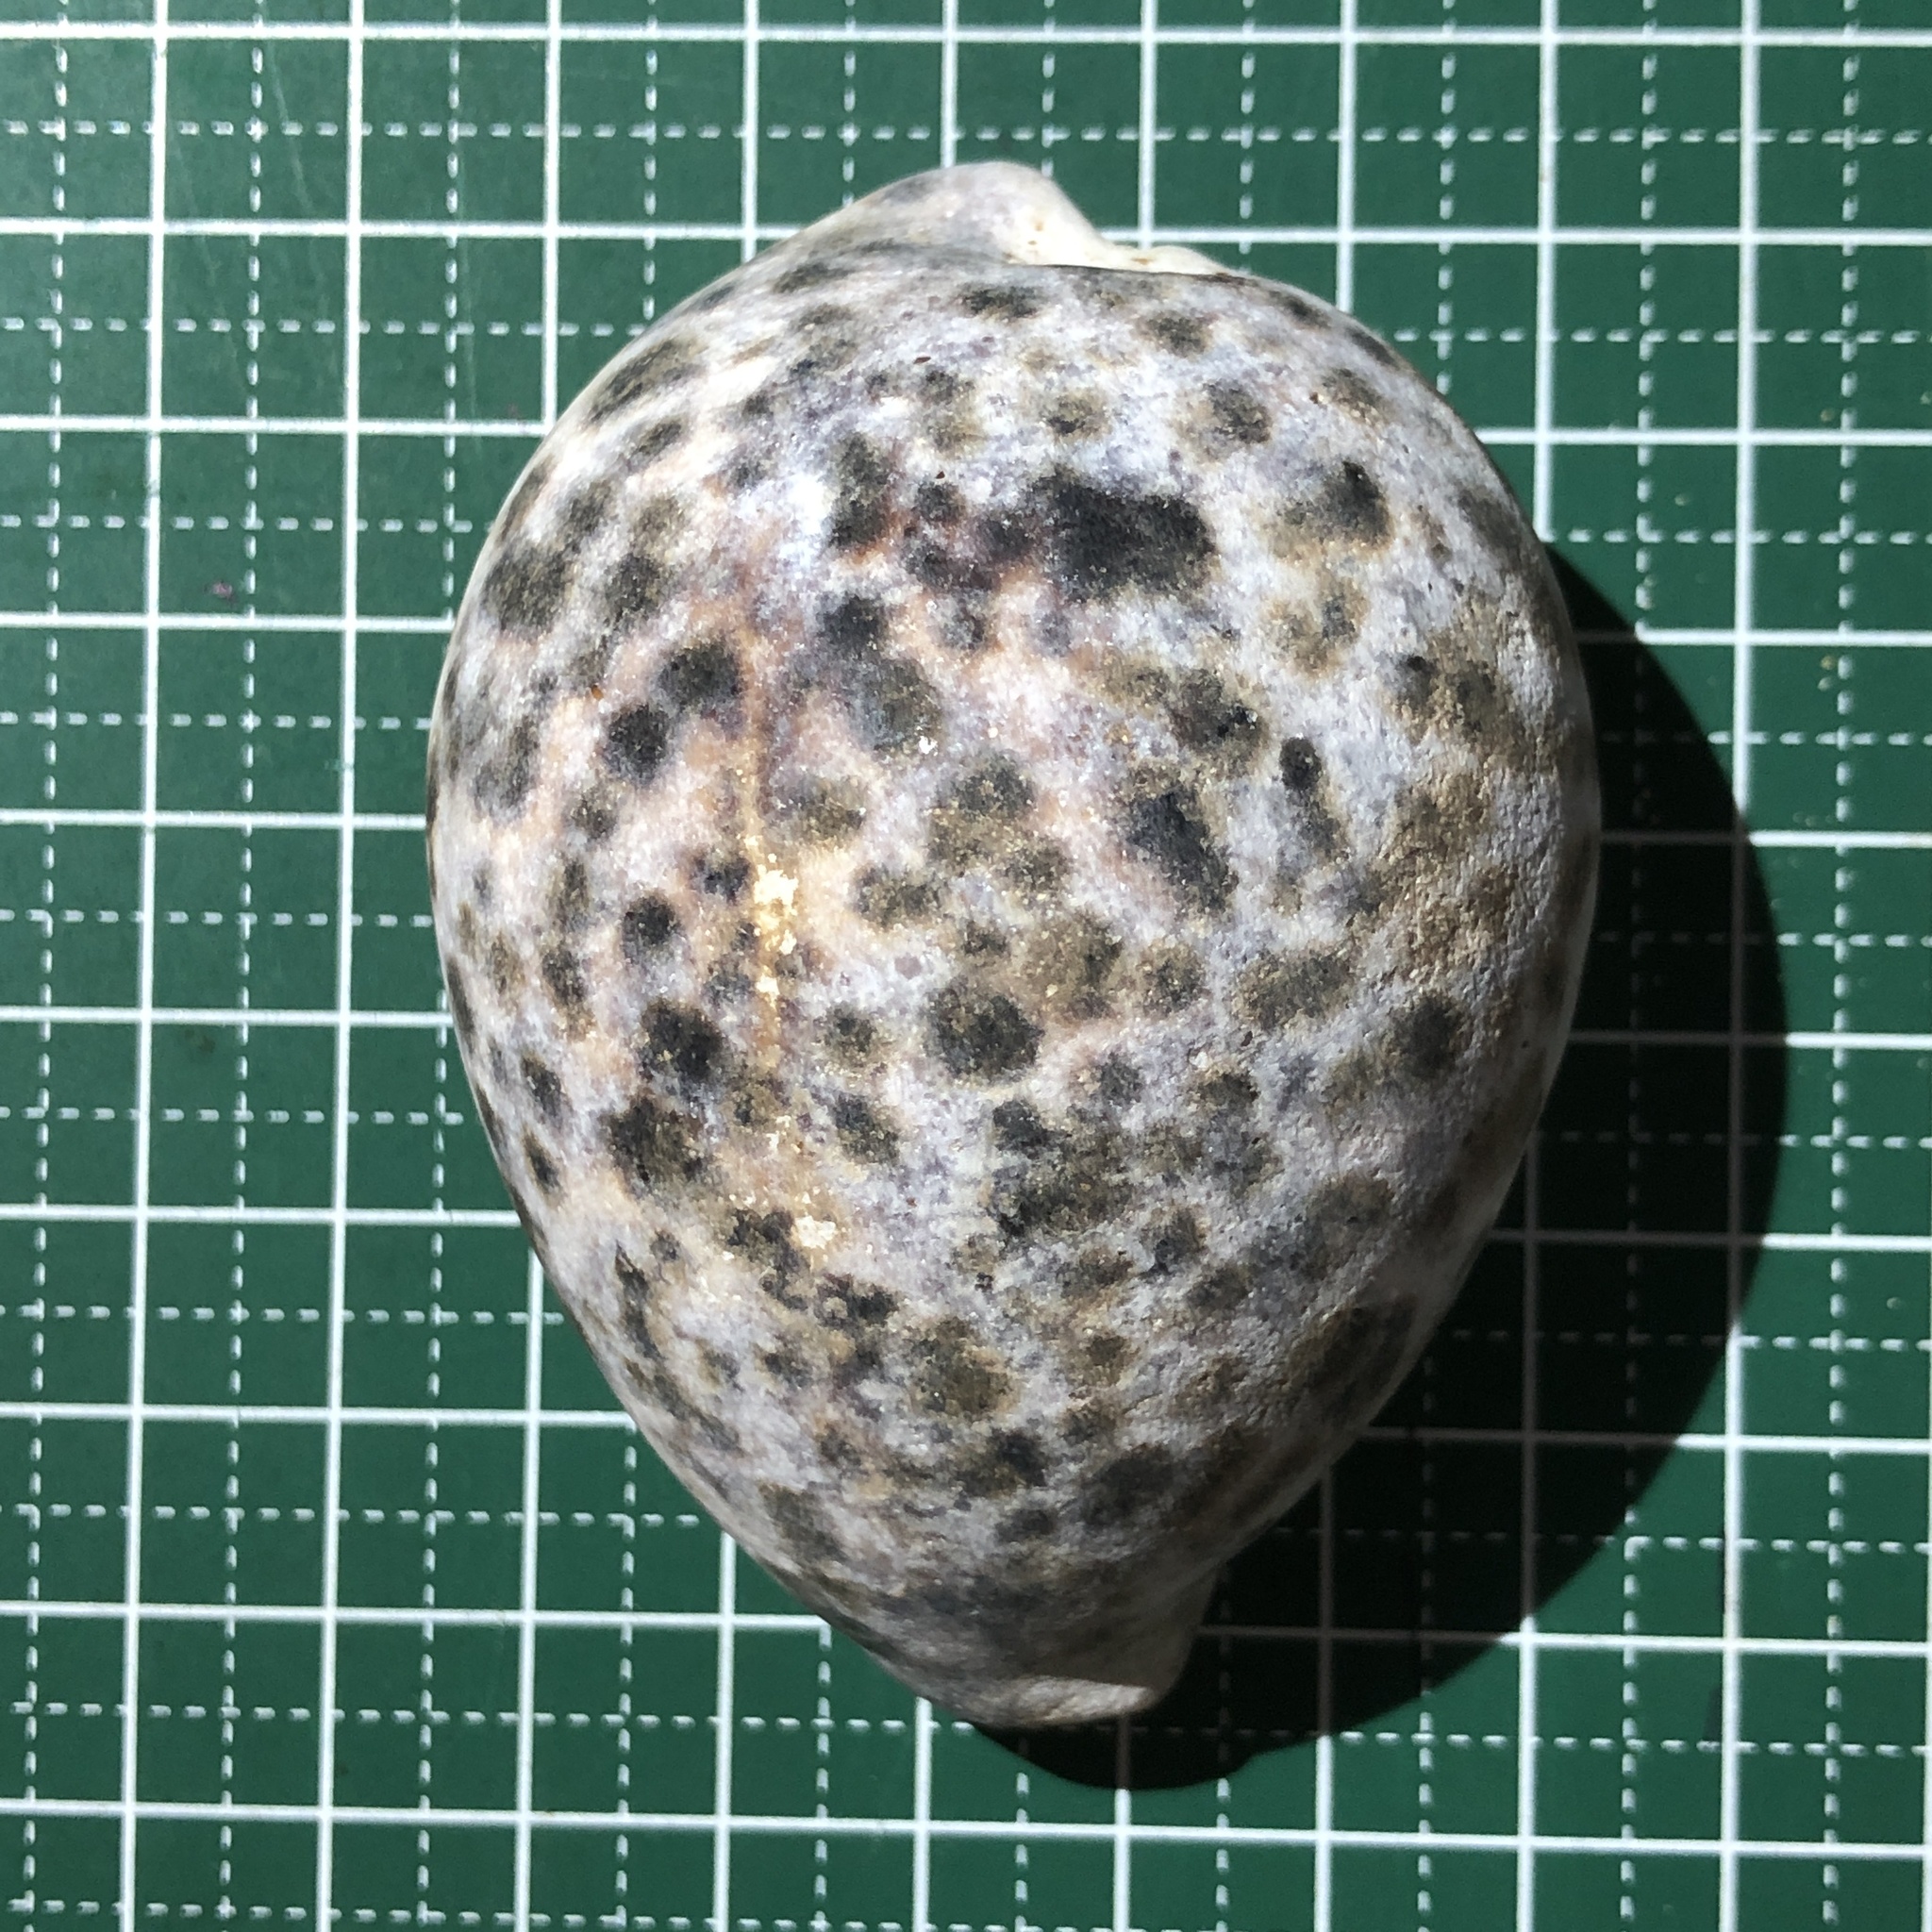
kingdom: Animalia
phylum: Mollusca
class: Gastropoda
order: Littorinimorpha
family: Cypraeidae
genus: Cypraea
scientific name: Cypraea tigris
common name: Tiger cowrie
